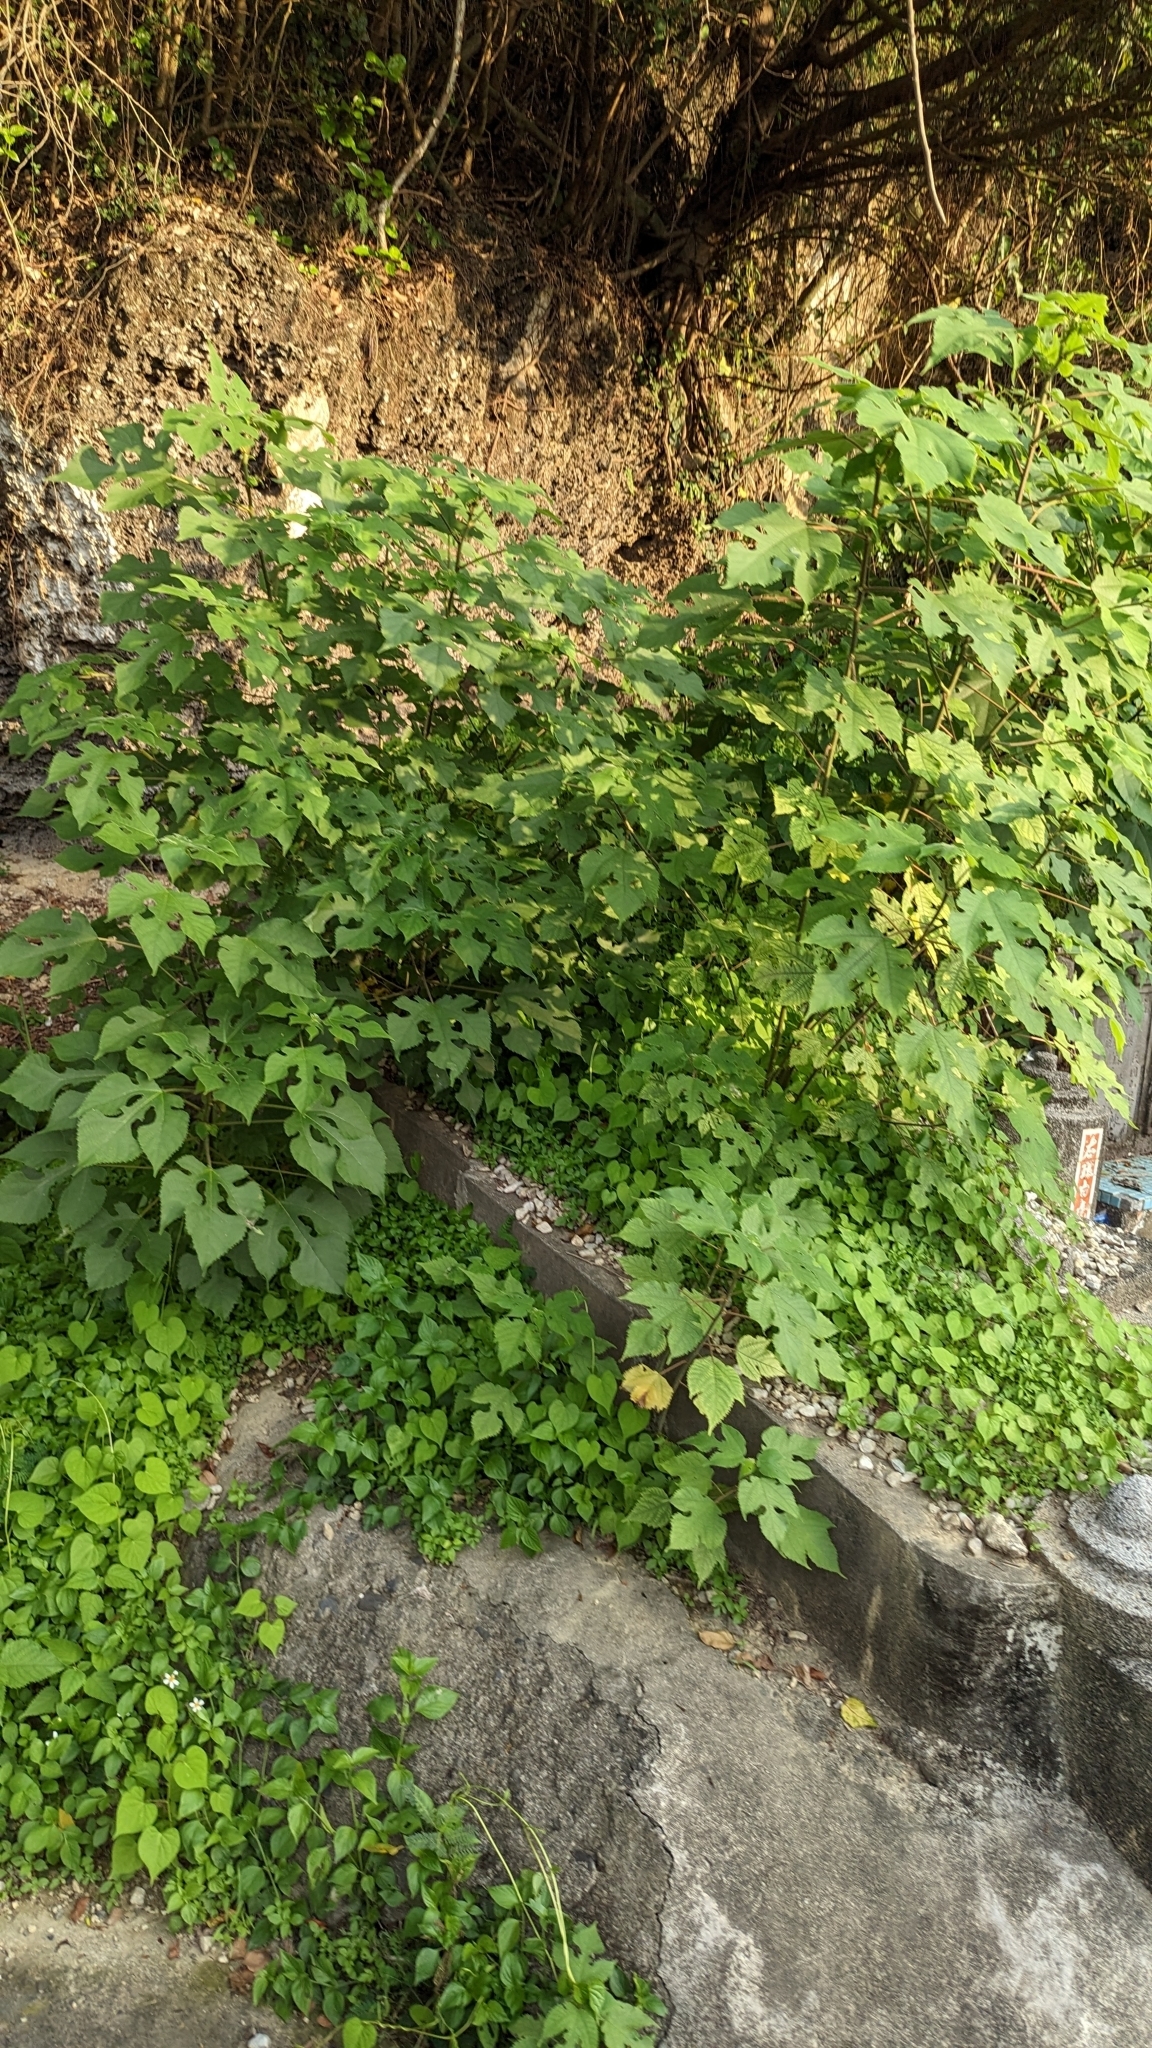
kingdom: Plantae
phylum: Tracheophyta
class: Magnoliopsida
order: Rosales
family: Moraceae
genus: Broussonetia
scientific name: Broussonetia papyrifera
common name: Paper mulberry
